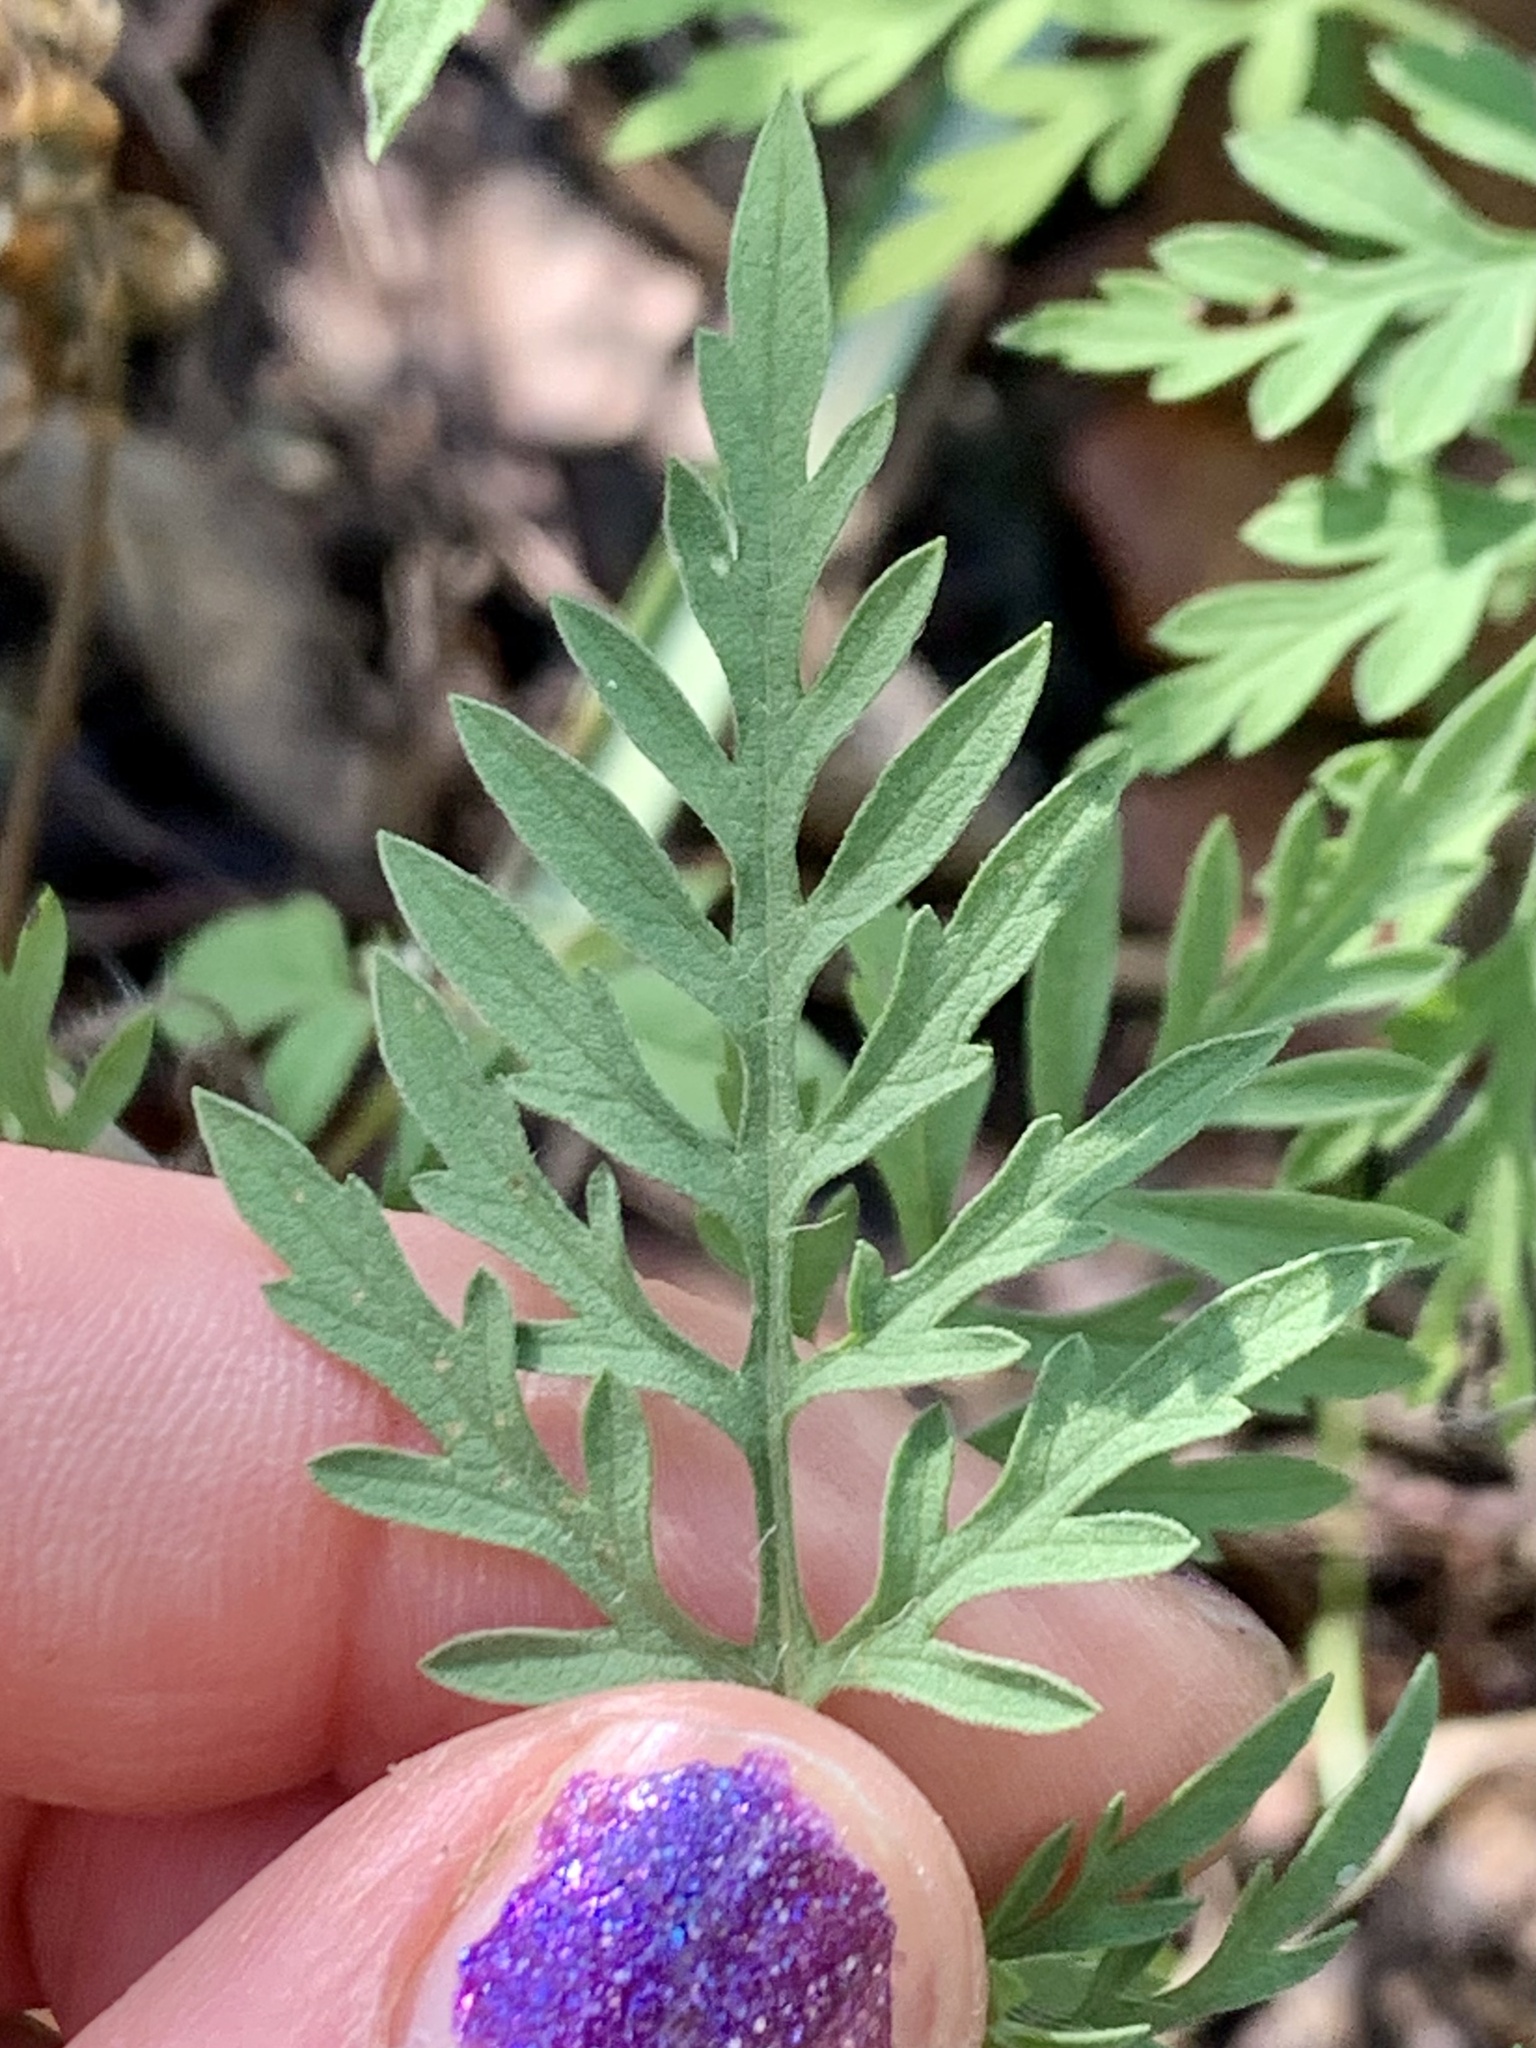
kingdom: Plantae
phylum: Tracheophyta
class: Magnoliopsida
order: Asterales
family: Asteraceae
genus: Ambrosia
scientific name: Ambrosia artemisiifolia
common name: Annual ragweed
